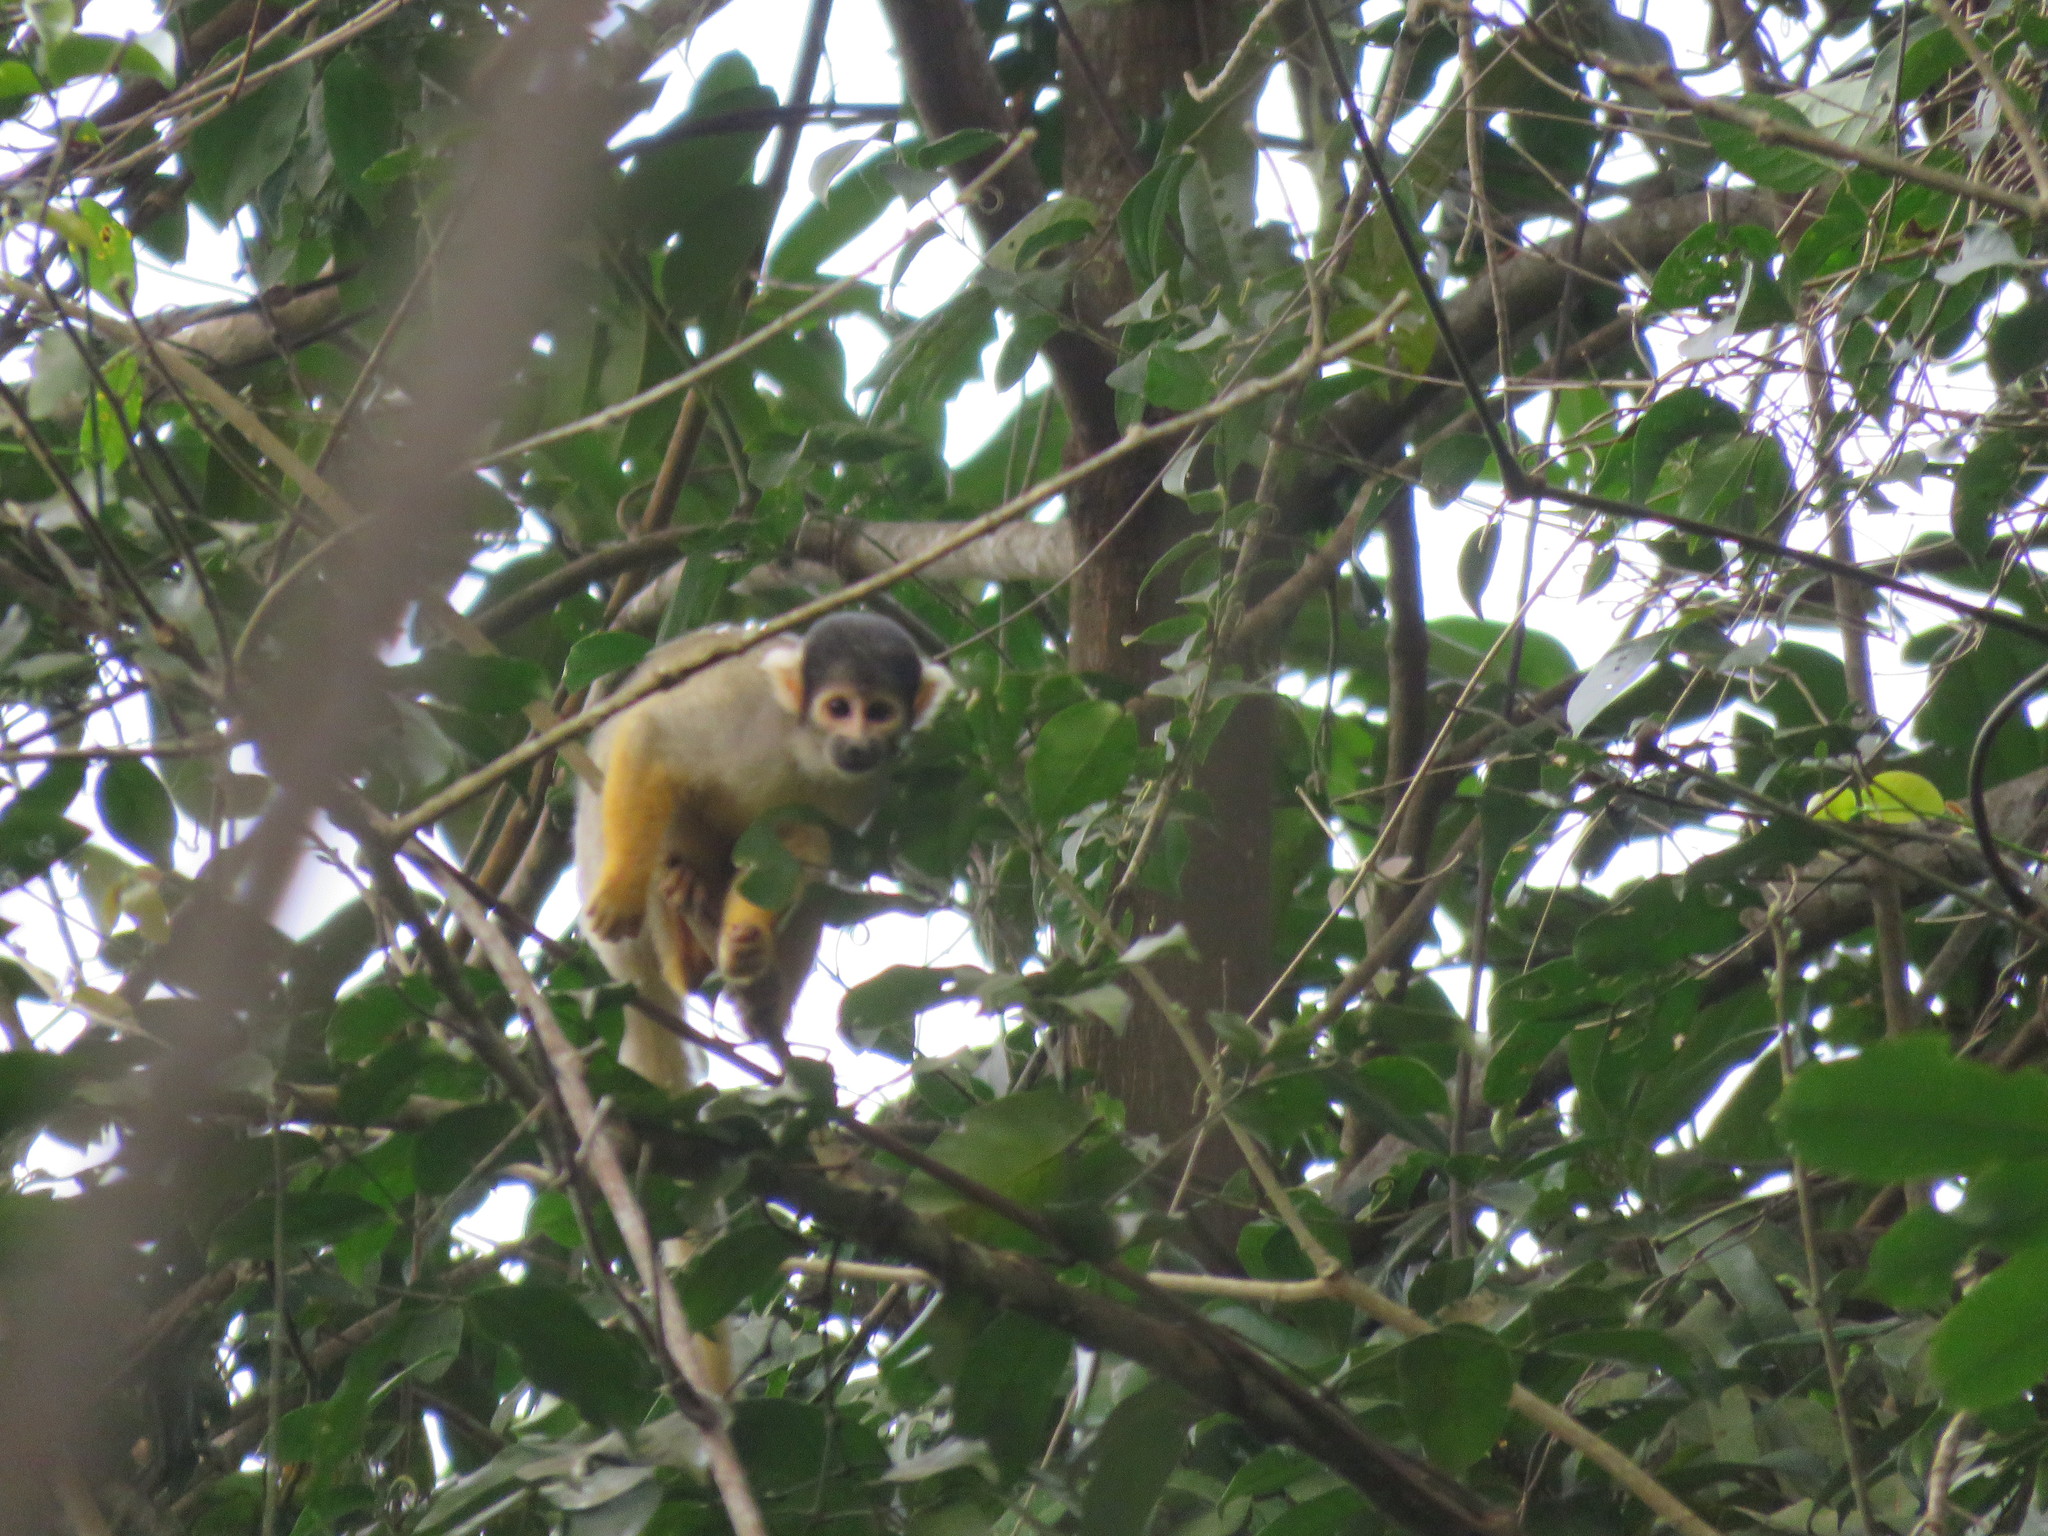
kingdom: Animalia
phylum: Chordata
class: Mammalia
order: Primates
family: Cebidae
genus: Saimiri
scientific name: Saimiri boliviensis
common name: Black-capped squirrel monkey
